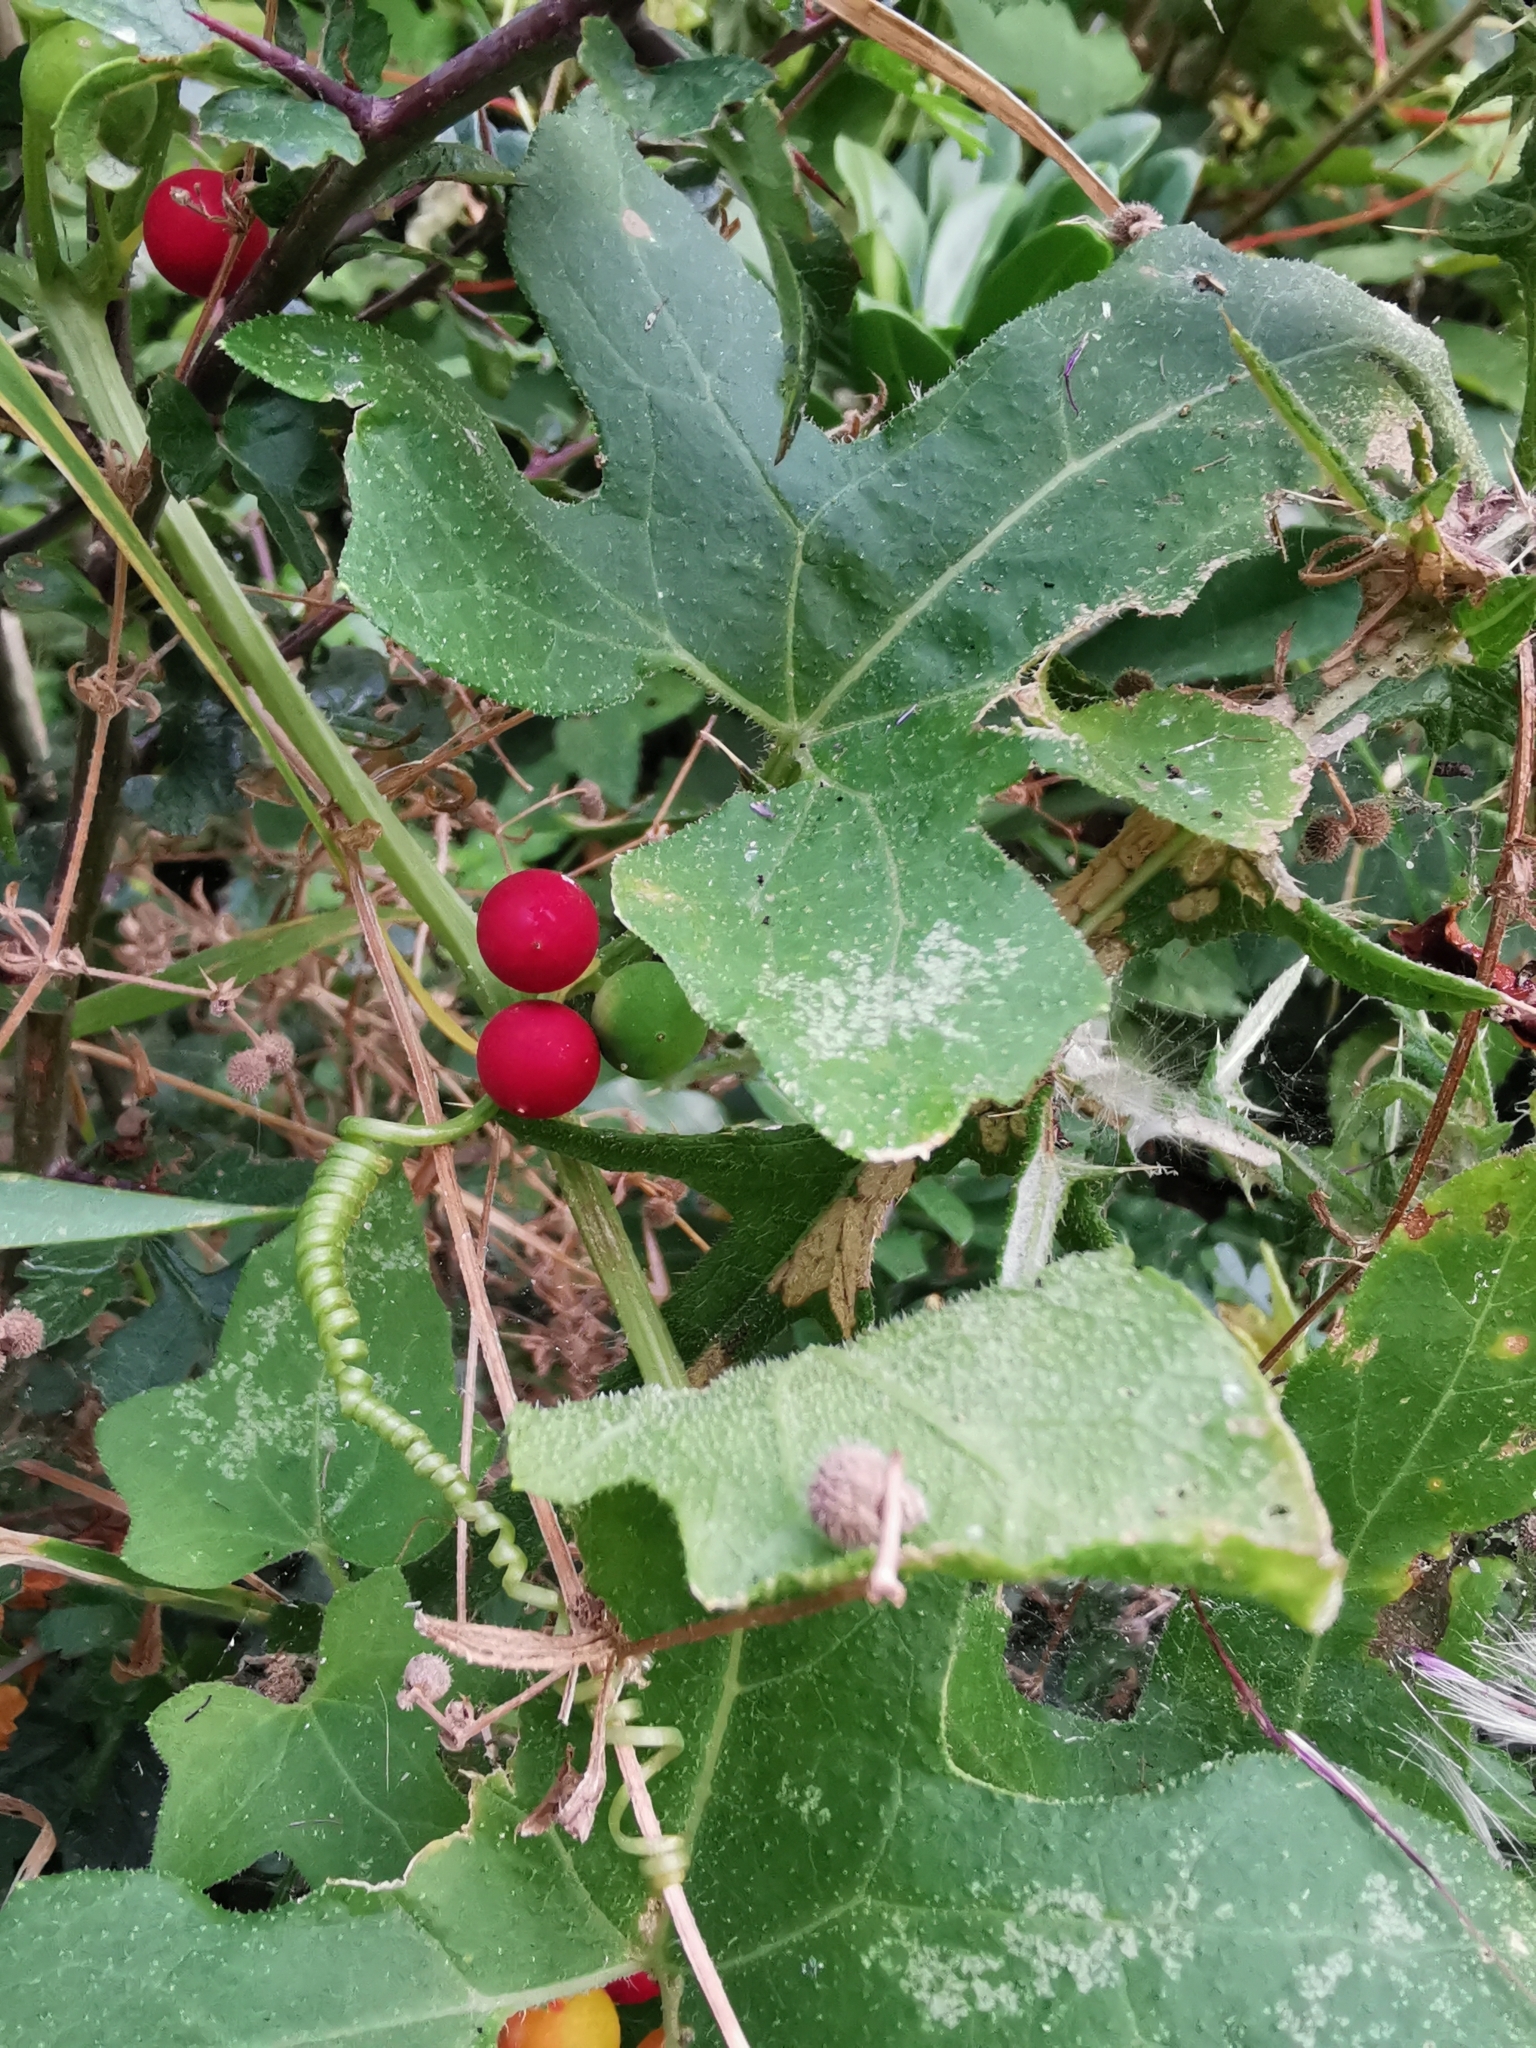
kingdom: Plantae
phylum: Tracheophyta
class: Magnoliopsida
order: Cucurbitales
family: Cucurbitaceae
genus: Bryonia
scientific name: Bryonia cretica
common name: Cretan bryony
